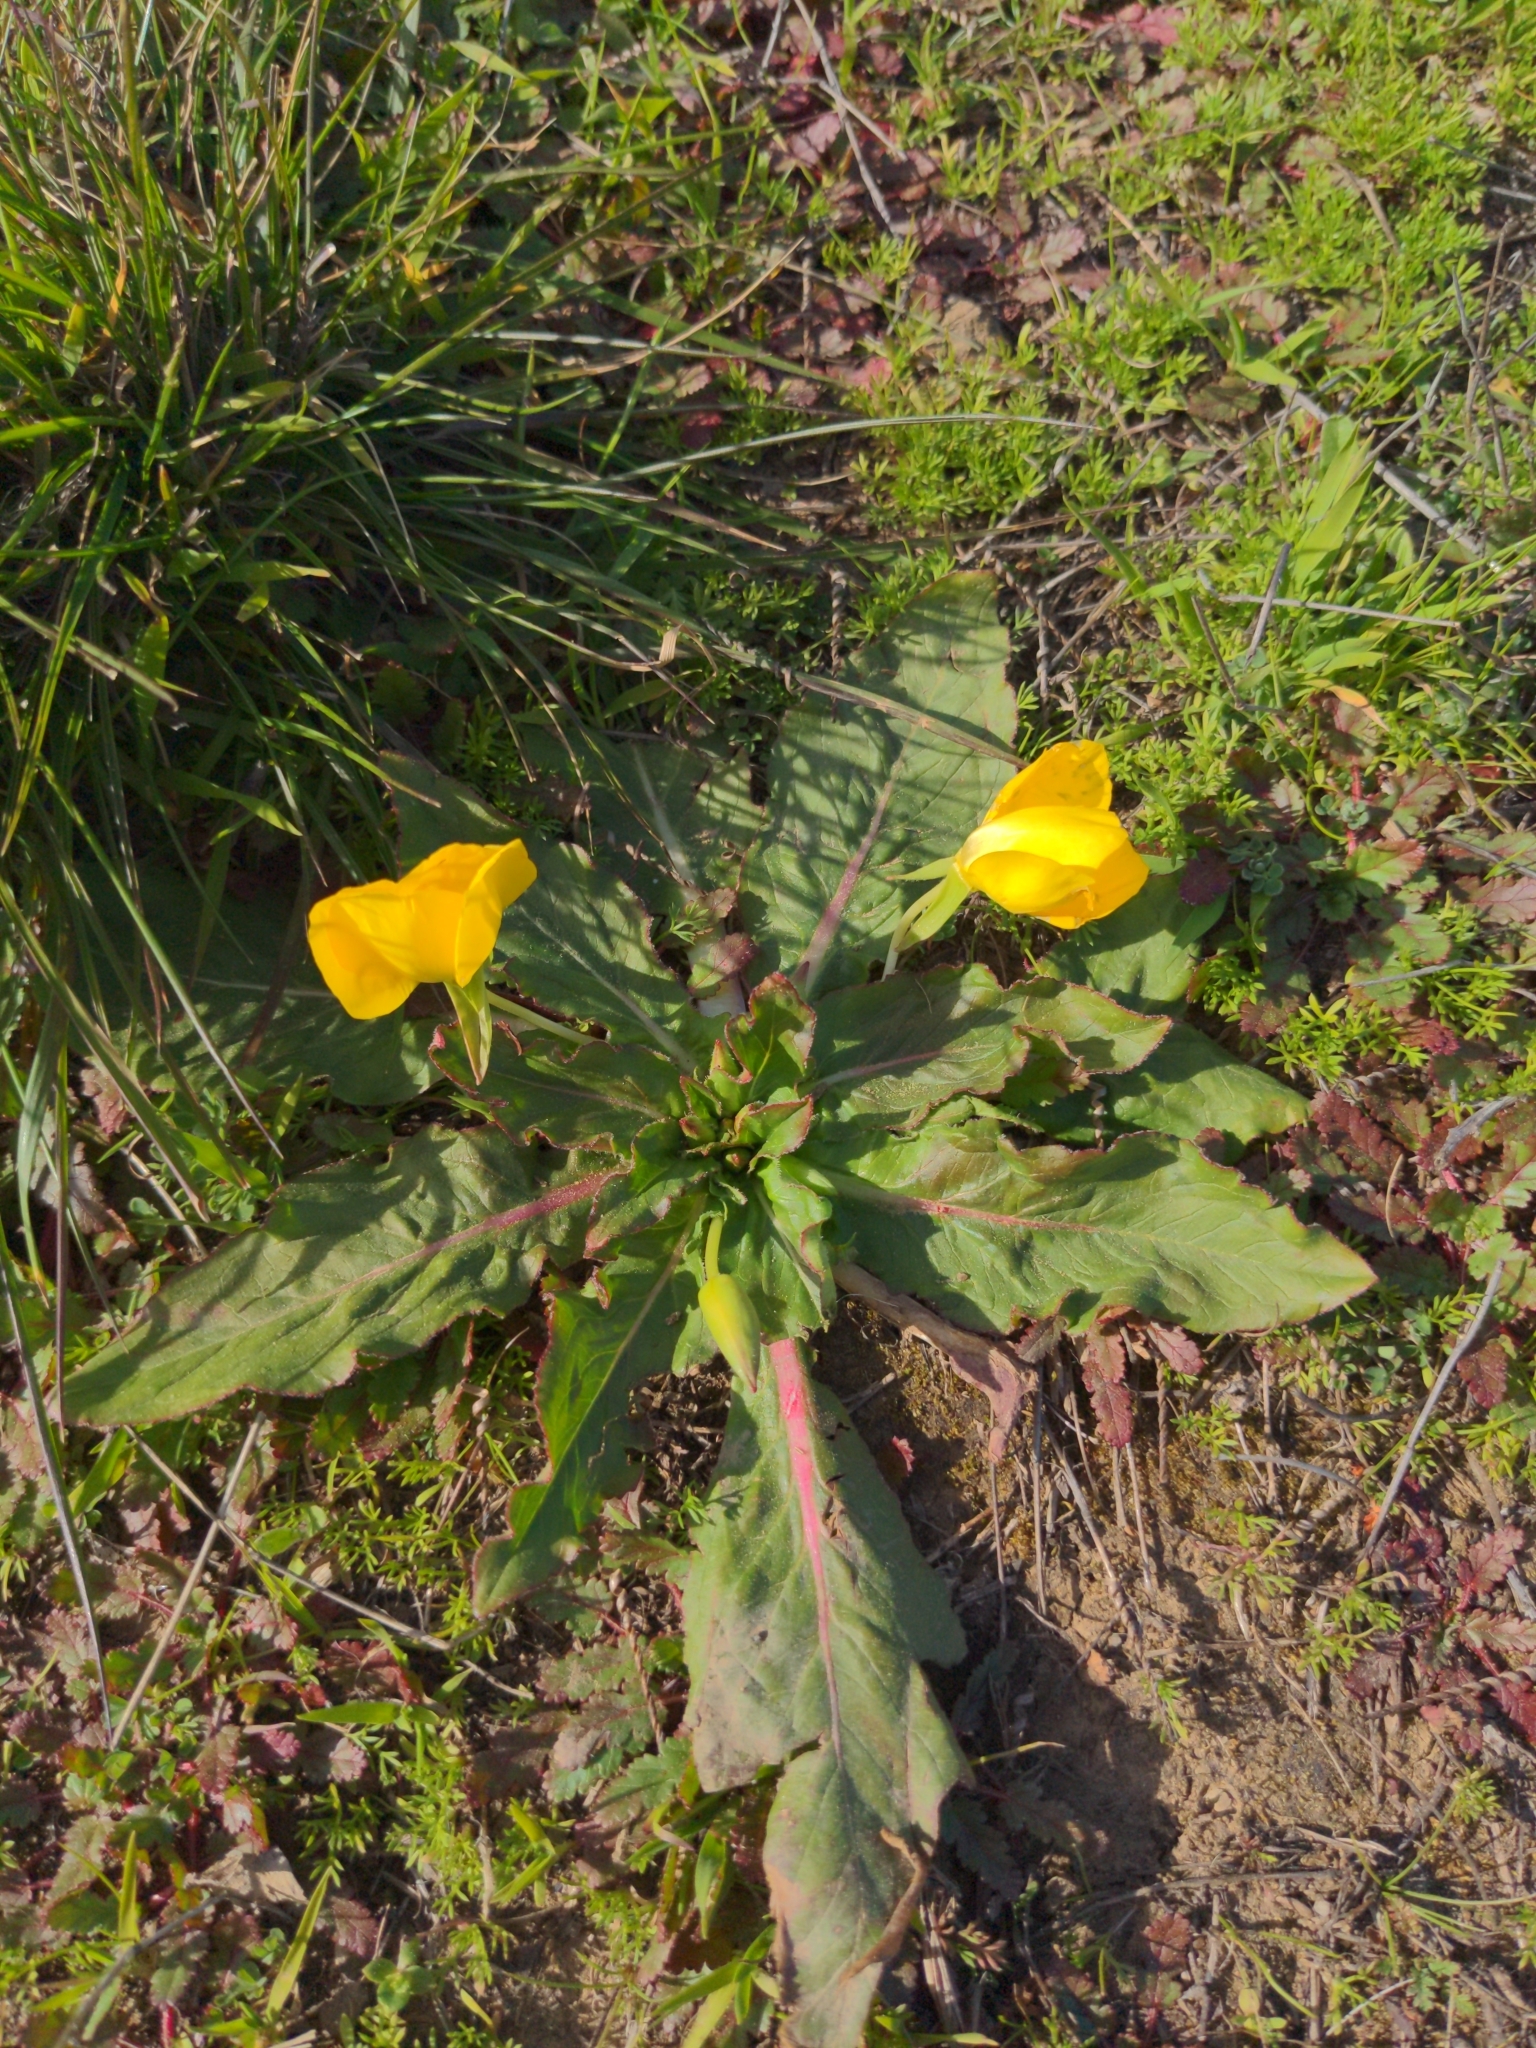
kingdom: Plantae
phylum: Tracheophyta
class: Magnoliopsida
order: Myrtales
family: Onagraceae
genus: Taraxia
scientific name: Taraxia ovata
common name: Goldeneggs
